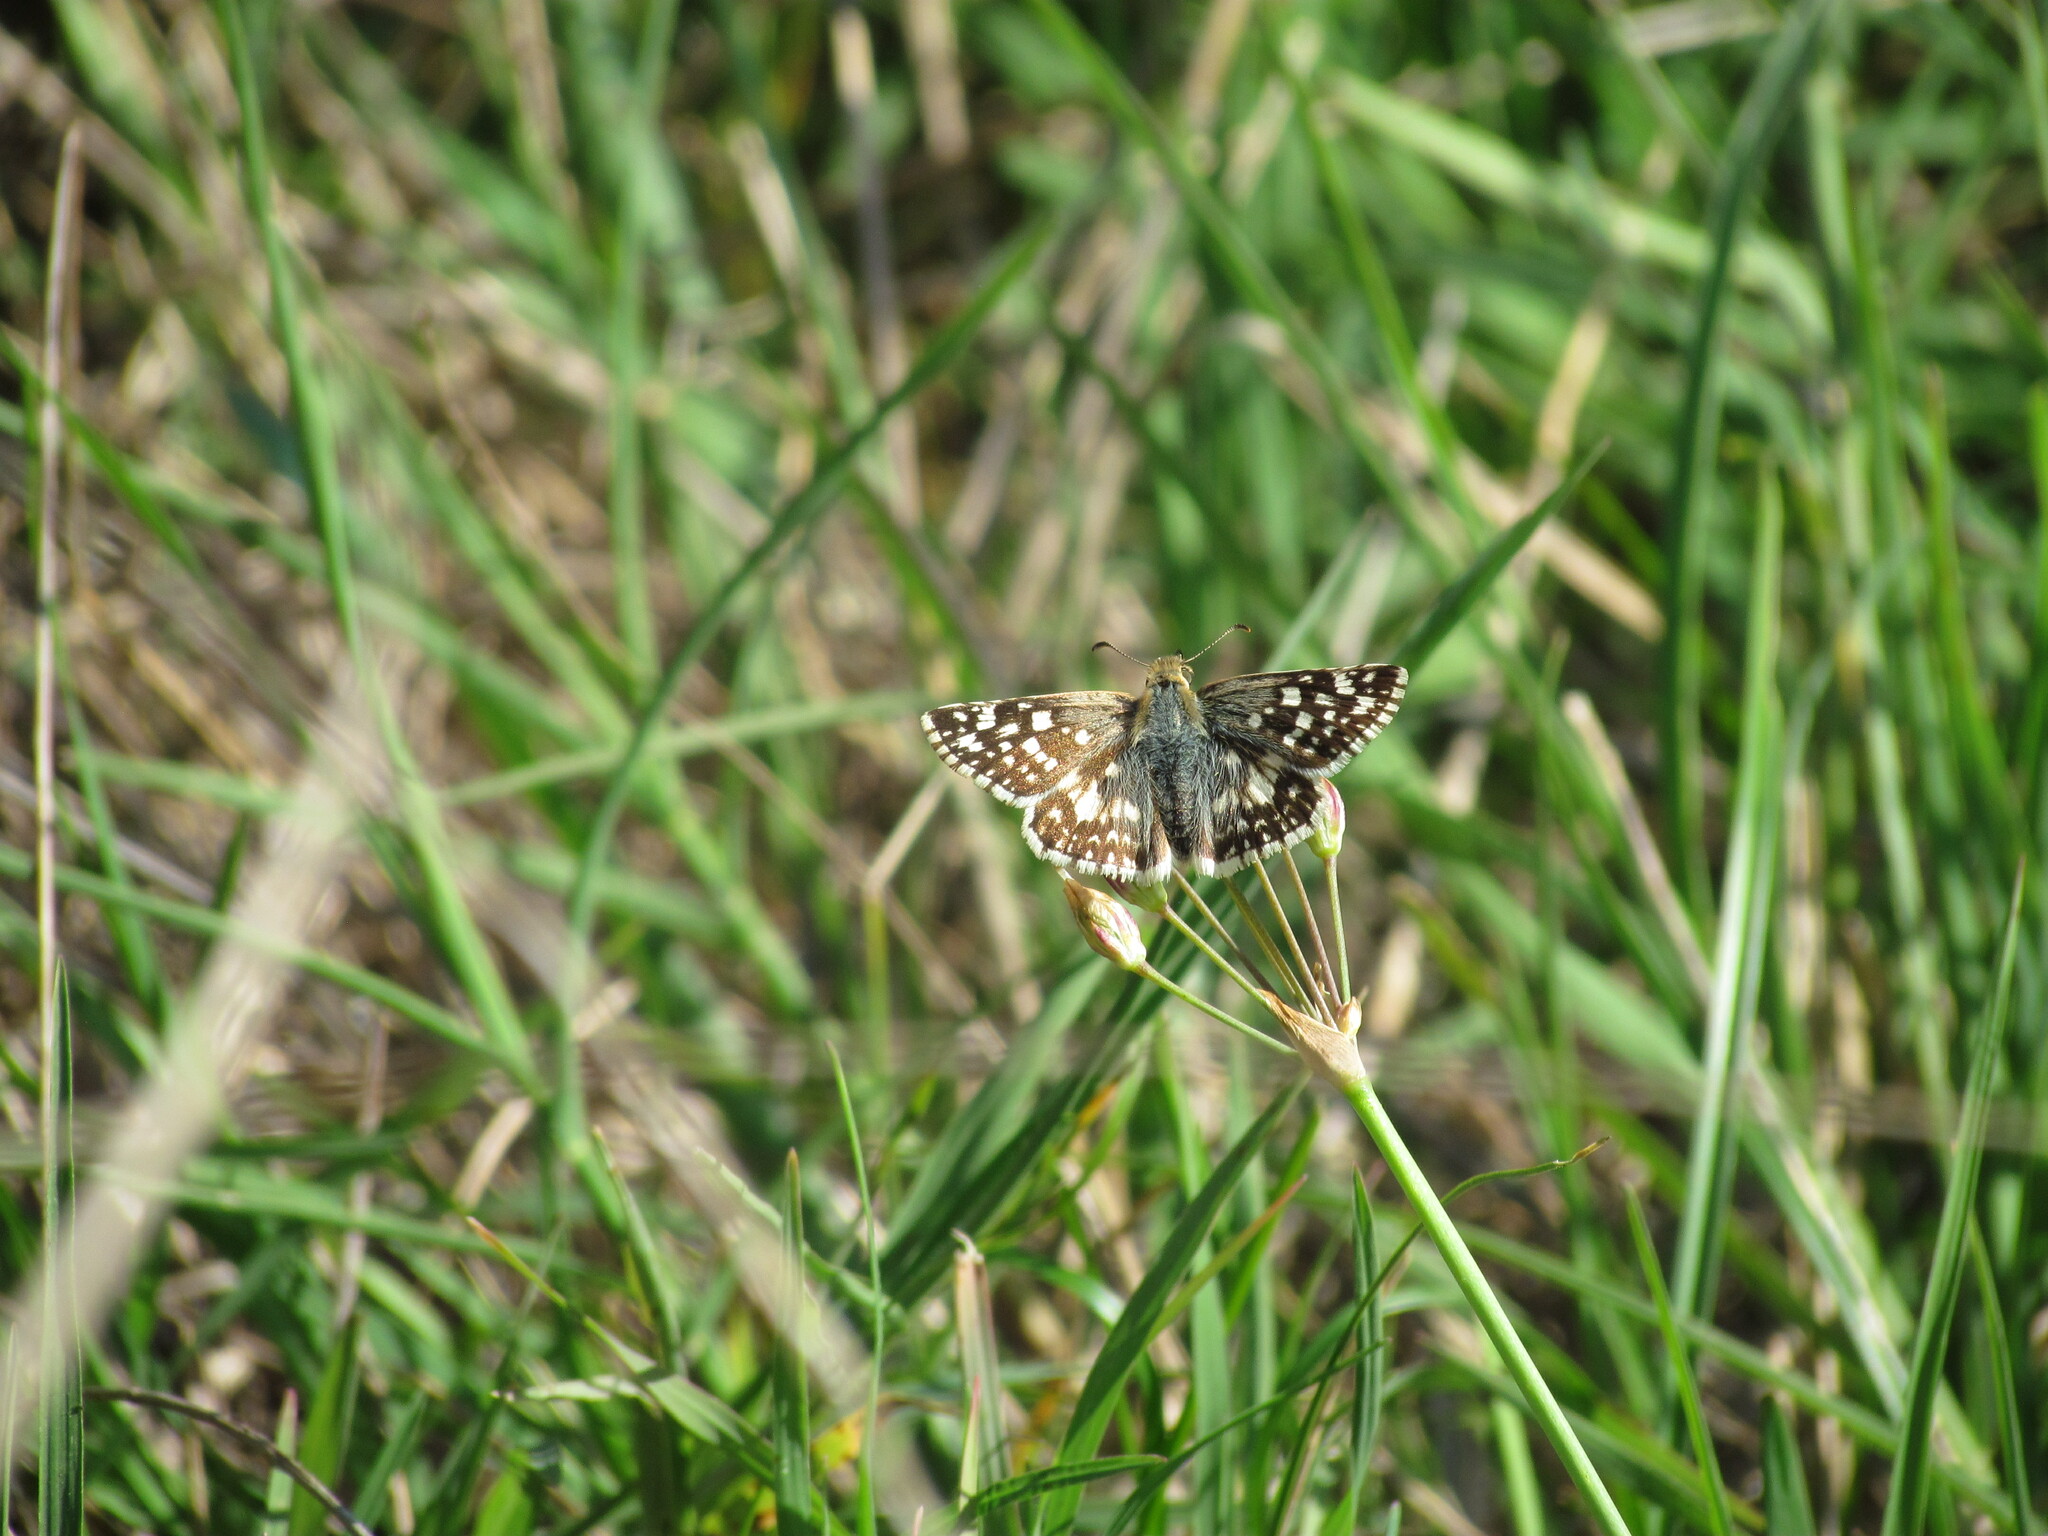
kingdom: Animalia
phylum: Arthropoda
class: Insecta
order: Lepidoptera
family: Hesperiidae
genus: Heliopetes
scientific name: Heliopetes americanus
